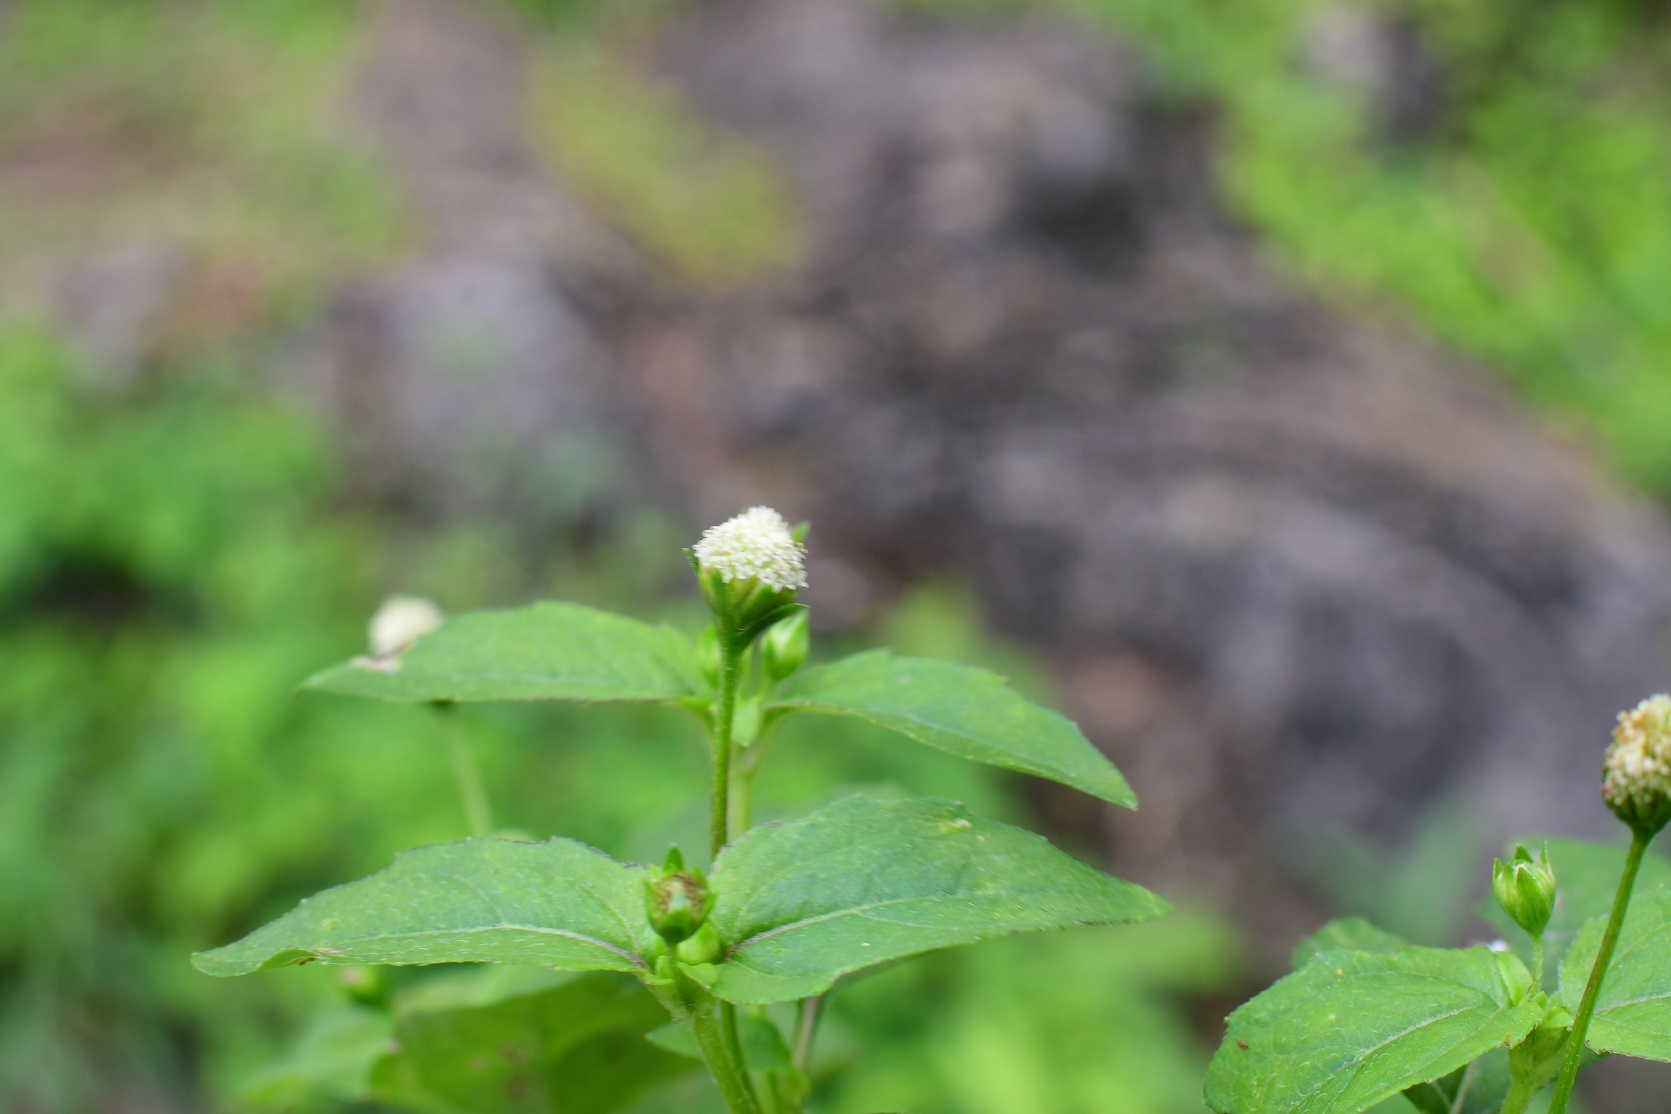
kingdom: Plantae
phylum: Tracheophyta
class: Magnoliopsida
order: Asterales
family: Asteraceae
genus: Acmella
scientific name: Acmella radicans
